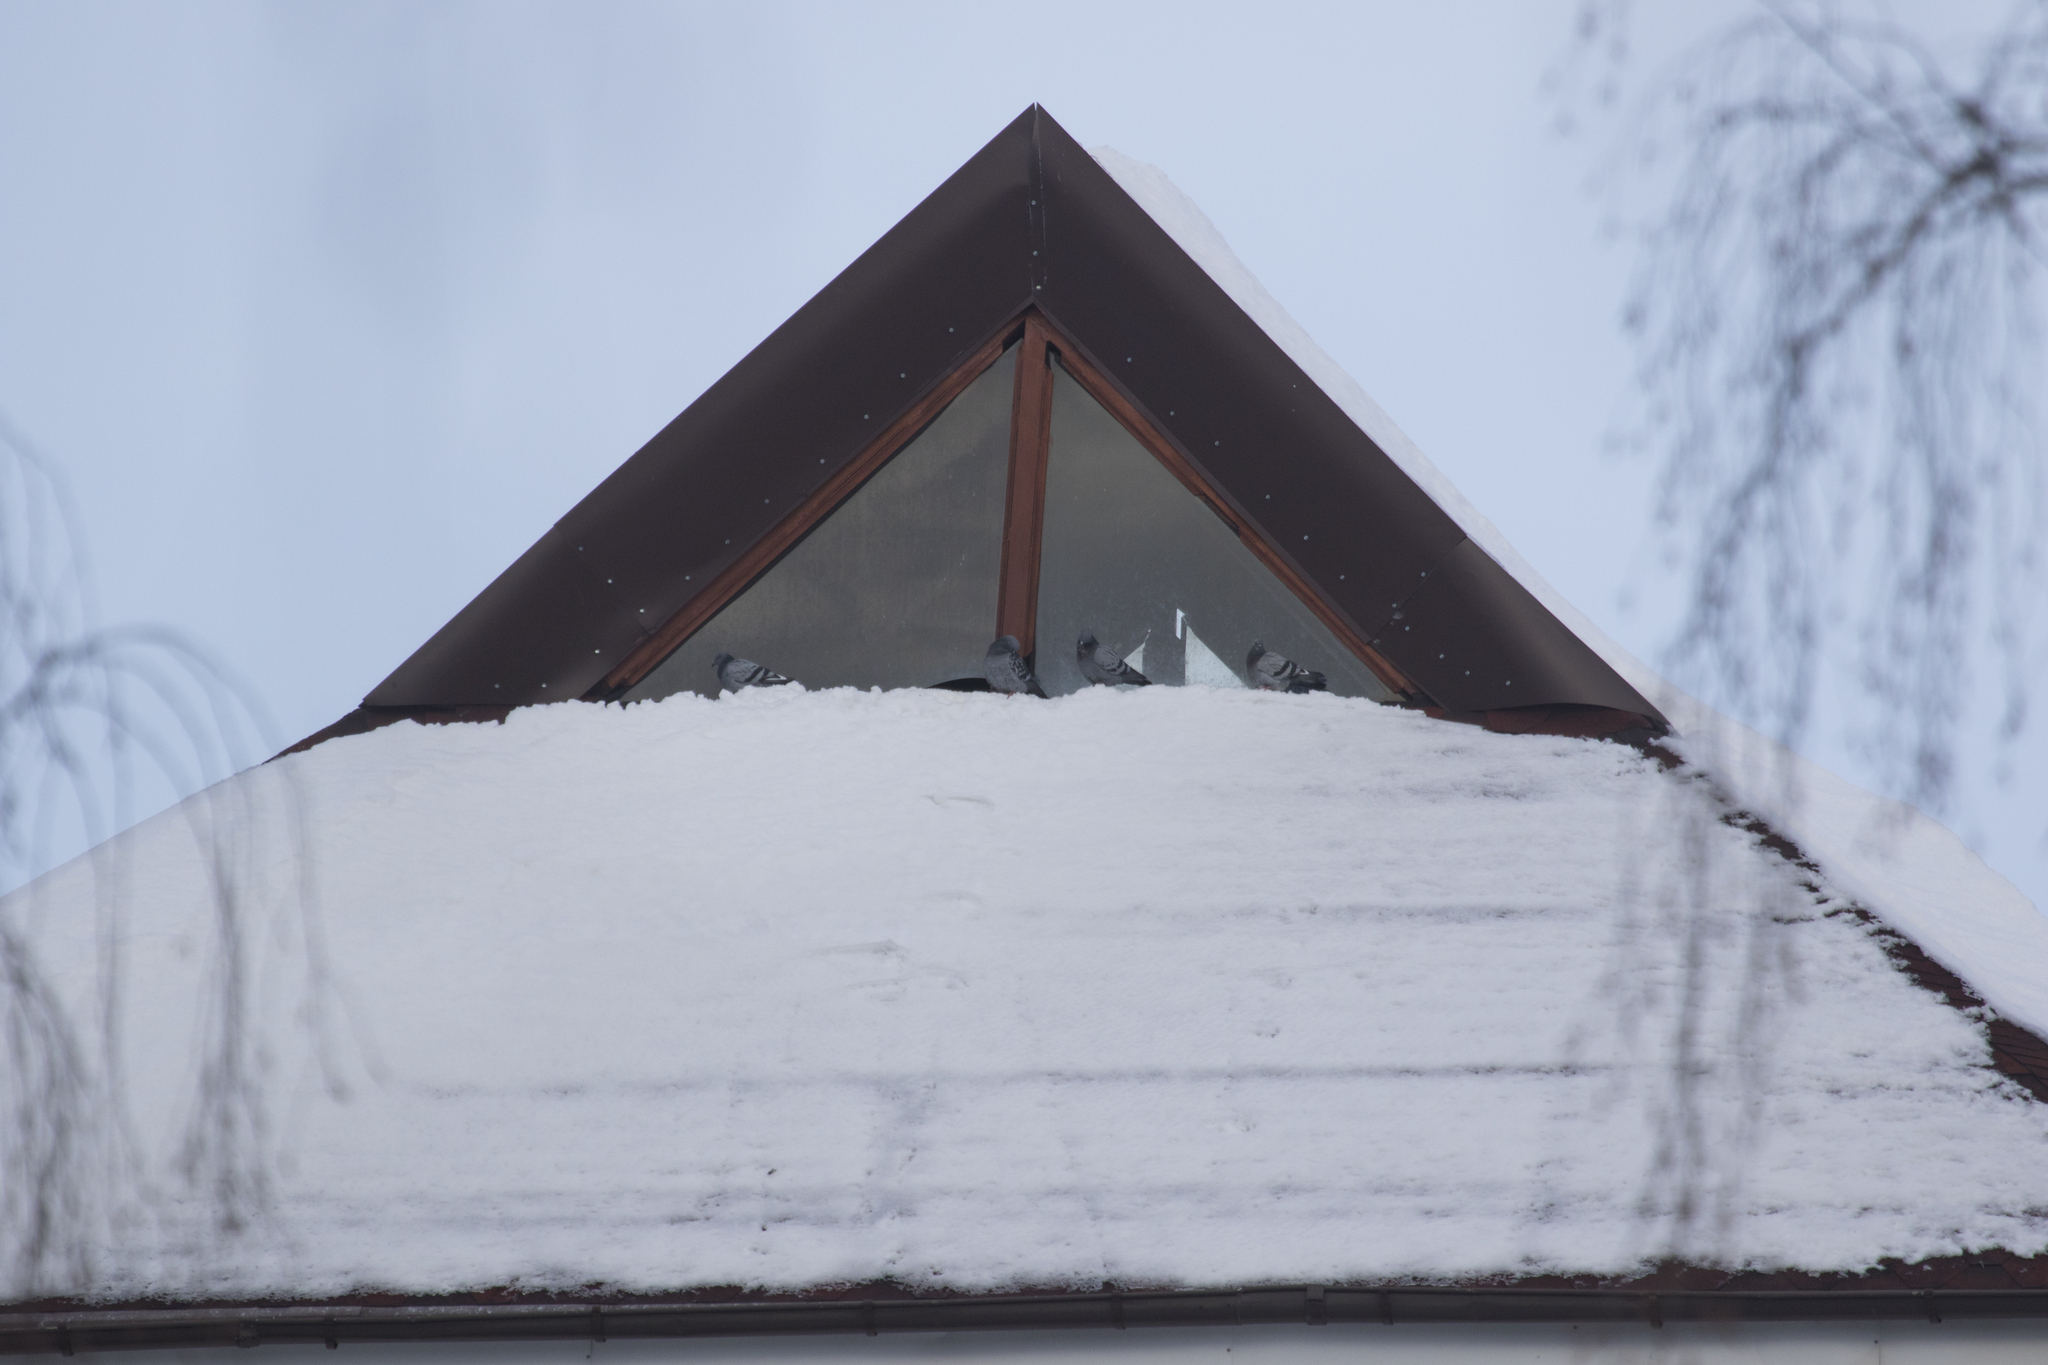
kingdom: Animalia
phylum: Chordata
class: Aves
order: Columbiformes
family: Columbidae
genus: Columba
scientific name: Columba livia
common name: Rock pigeon
